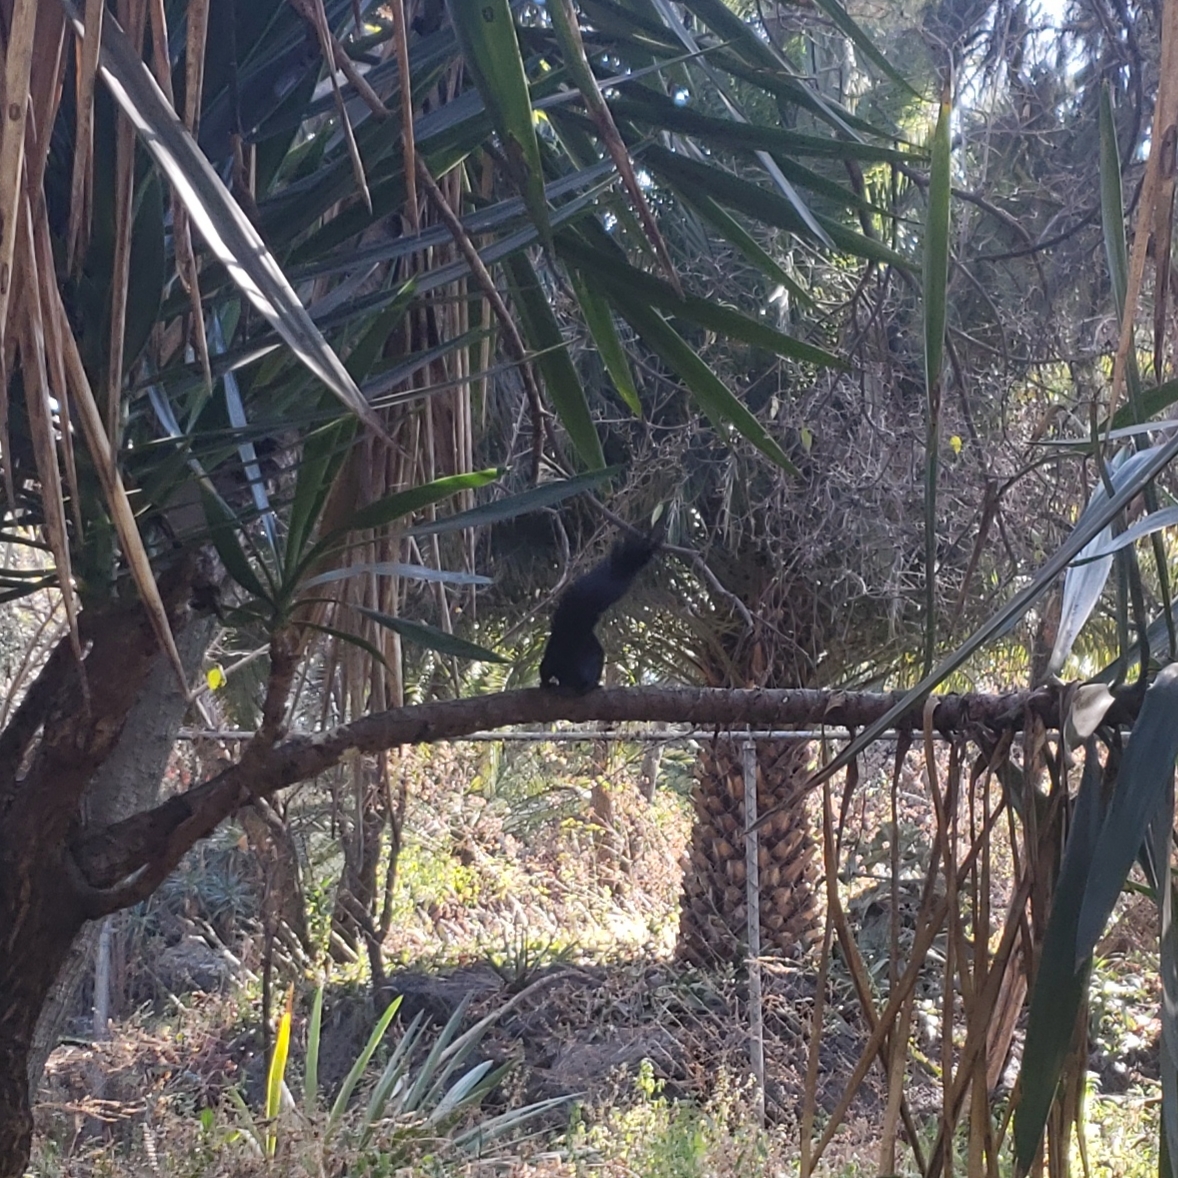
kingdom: Animalia
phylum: Chordata
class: Mammalia
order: Rodentia
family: Sciuridae
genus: Sciurus
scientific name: Sciurus aureogaster
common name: Red-bellied squirrel
